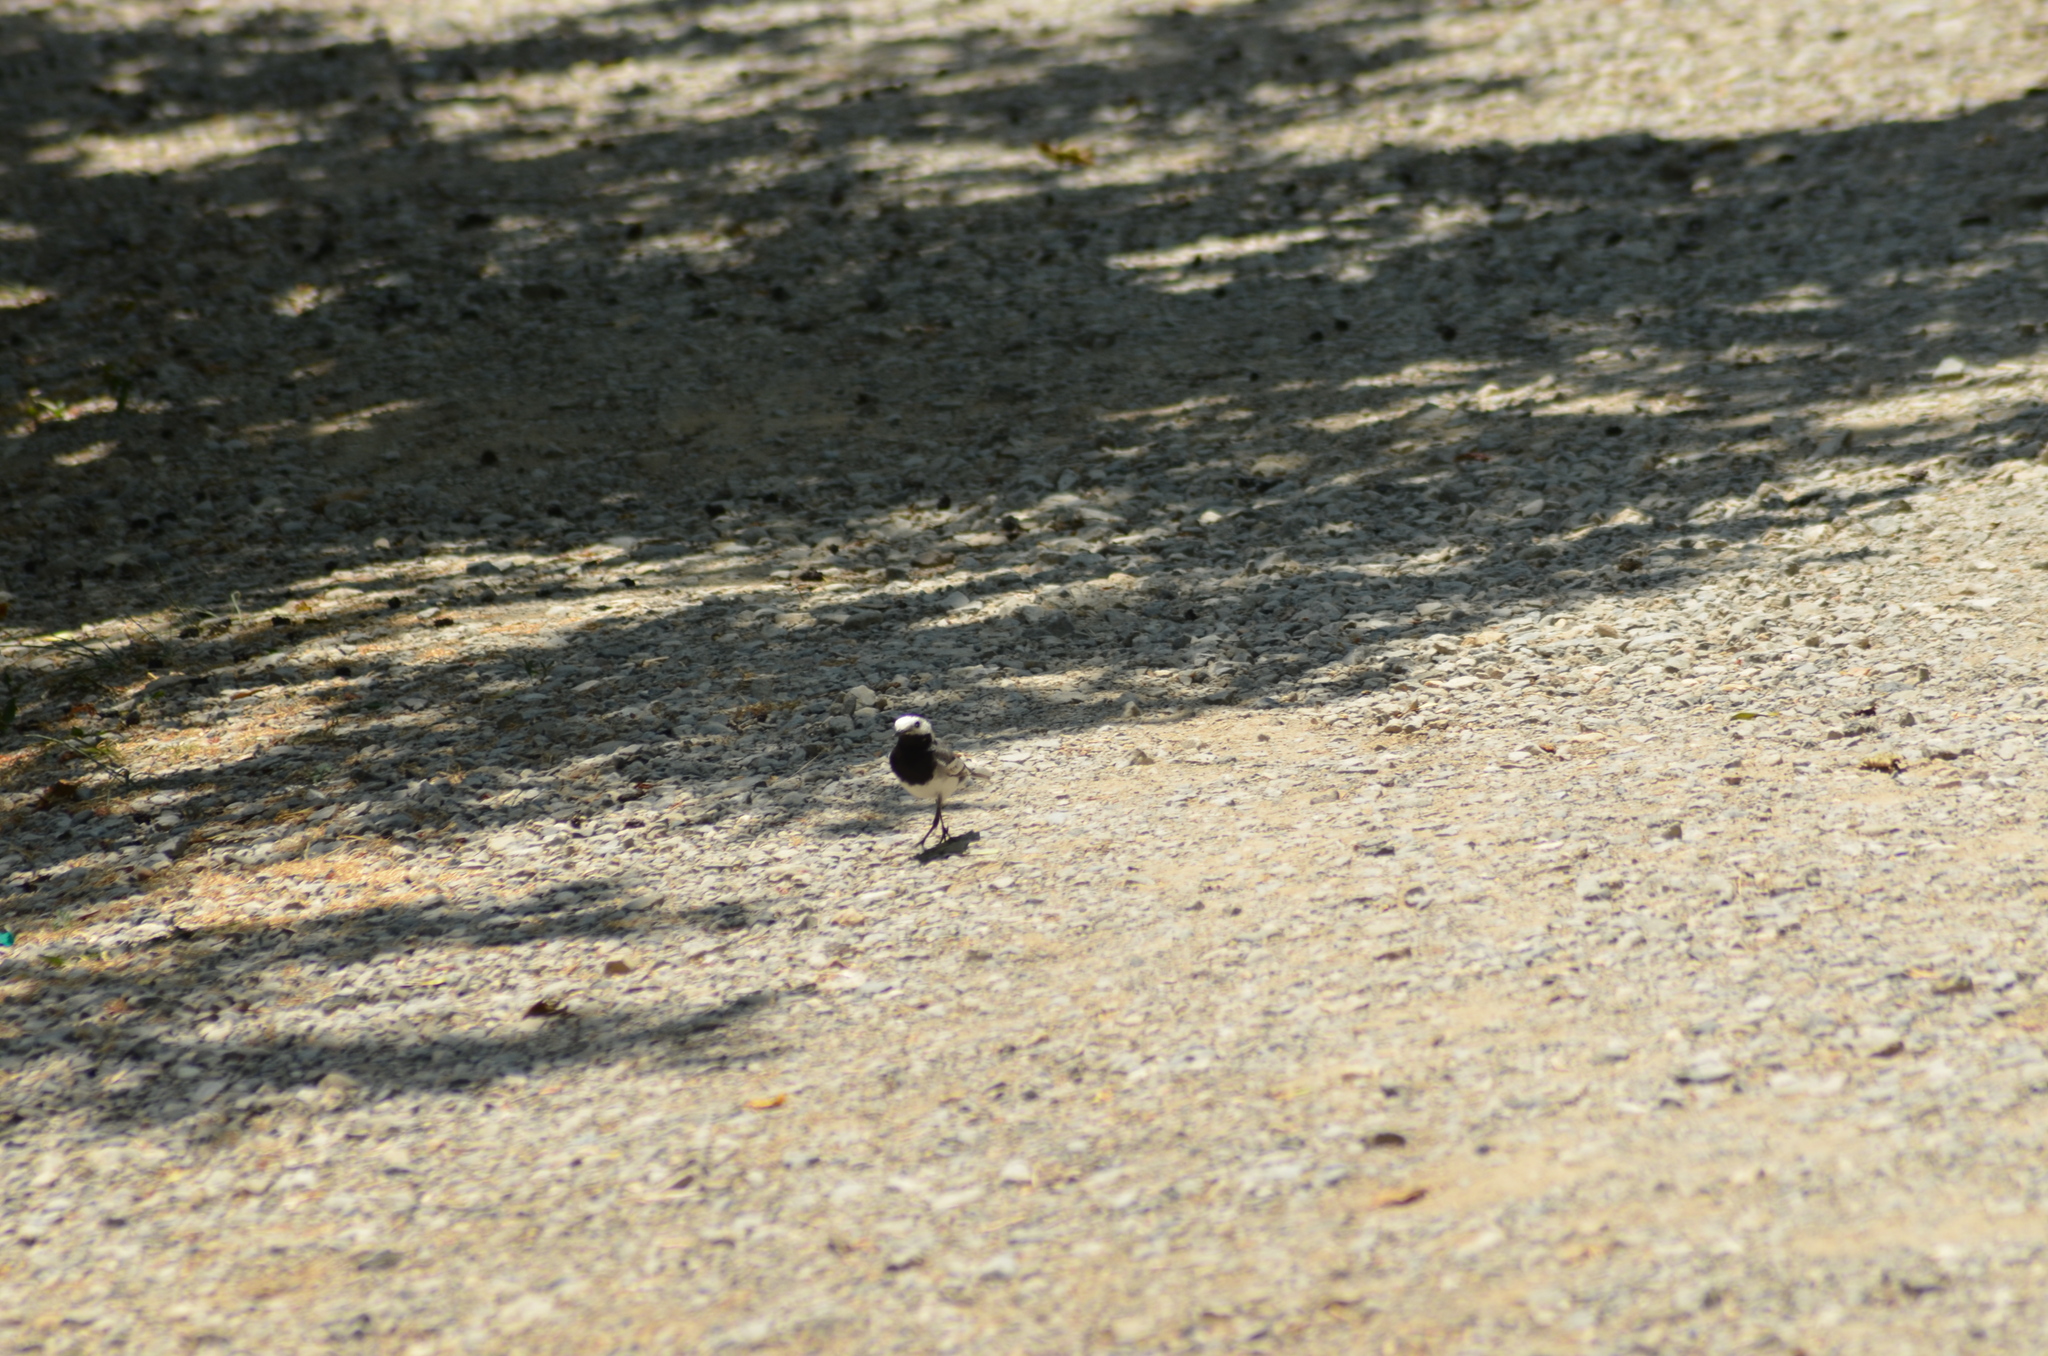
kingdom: Animalia
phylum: Chordata
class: Aves
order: Passeriformes
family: Motacillidae
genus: Motacilla
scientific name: Motacilla alba
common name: White wagtail
